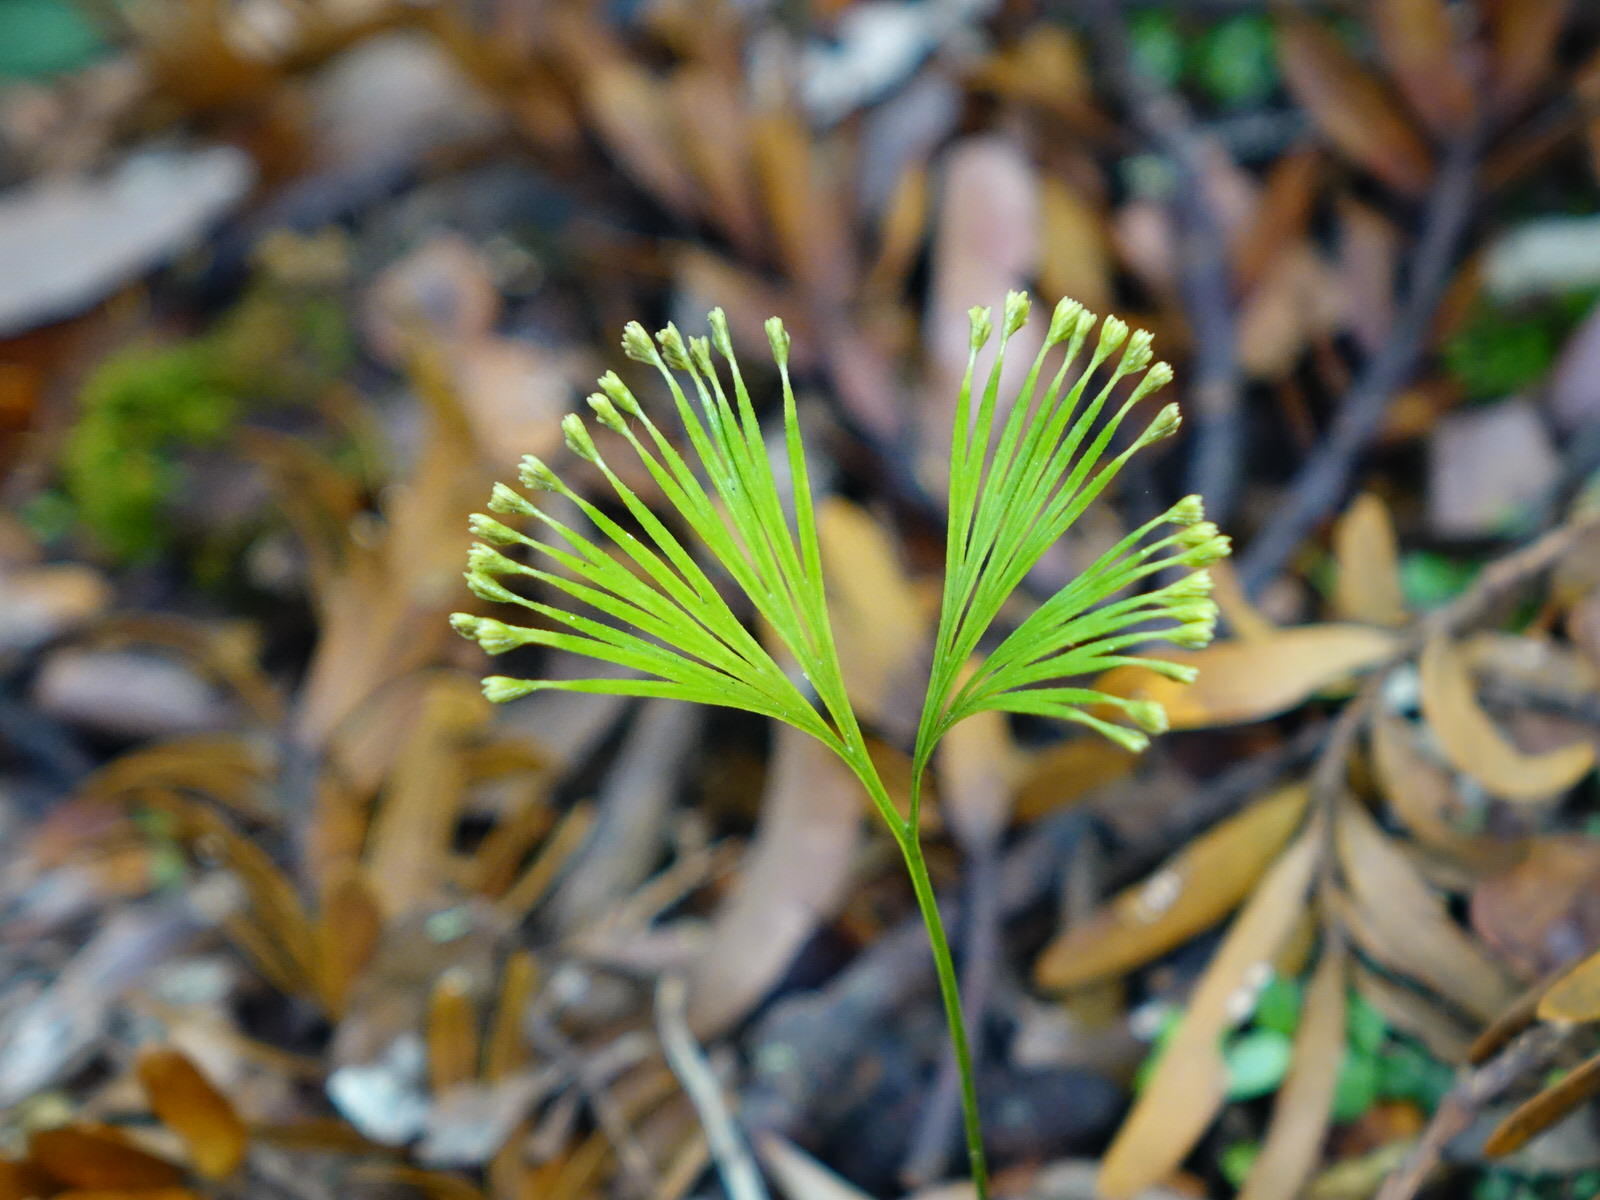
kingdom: Plantae
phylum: Tracheophyta
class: Polypodiopsida
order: Schizaeales
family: Schizaeaceae
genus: Schizaea
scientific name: Schizaea dichotoma
